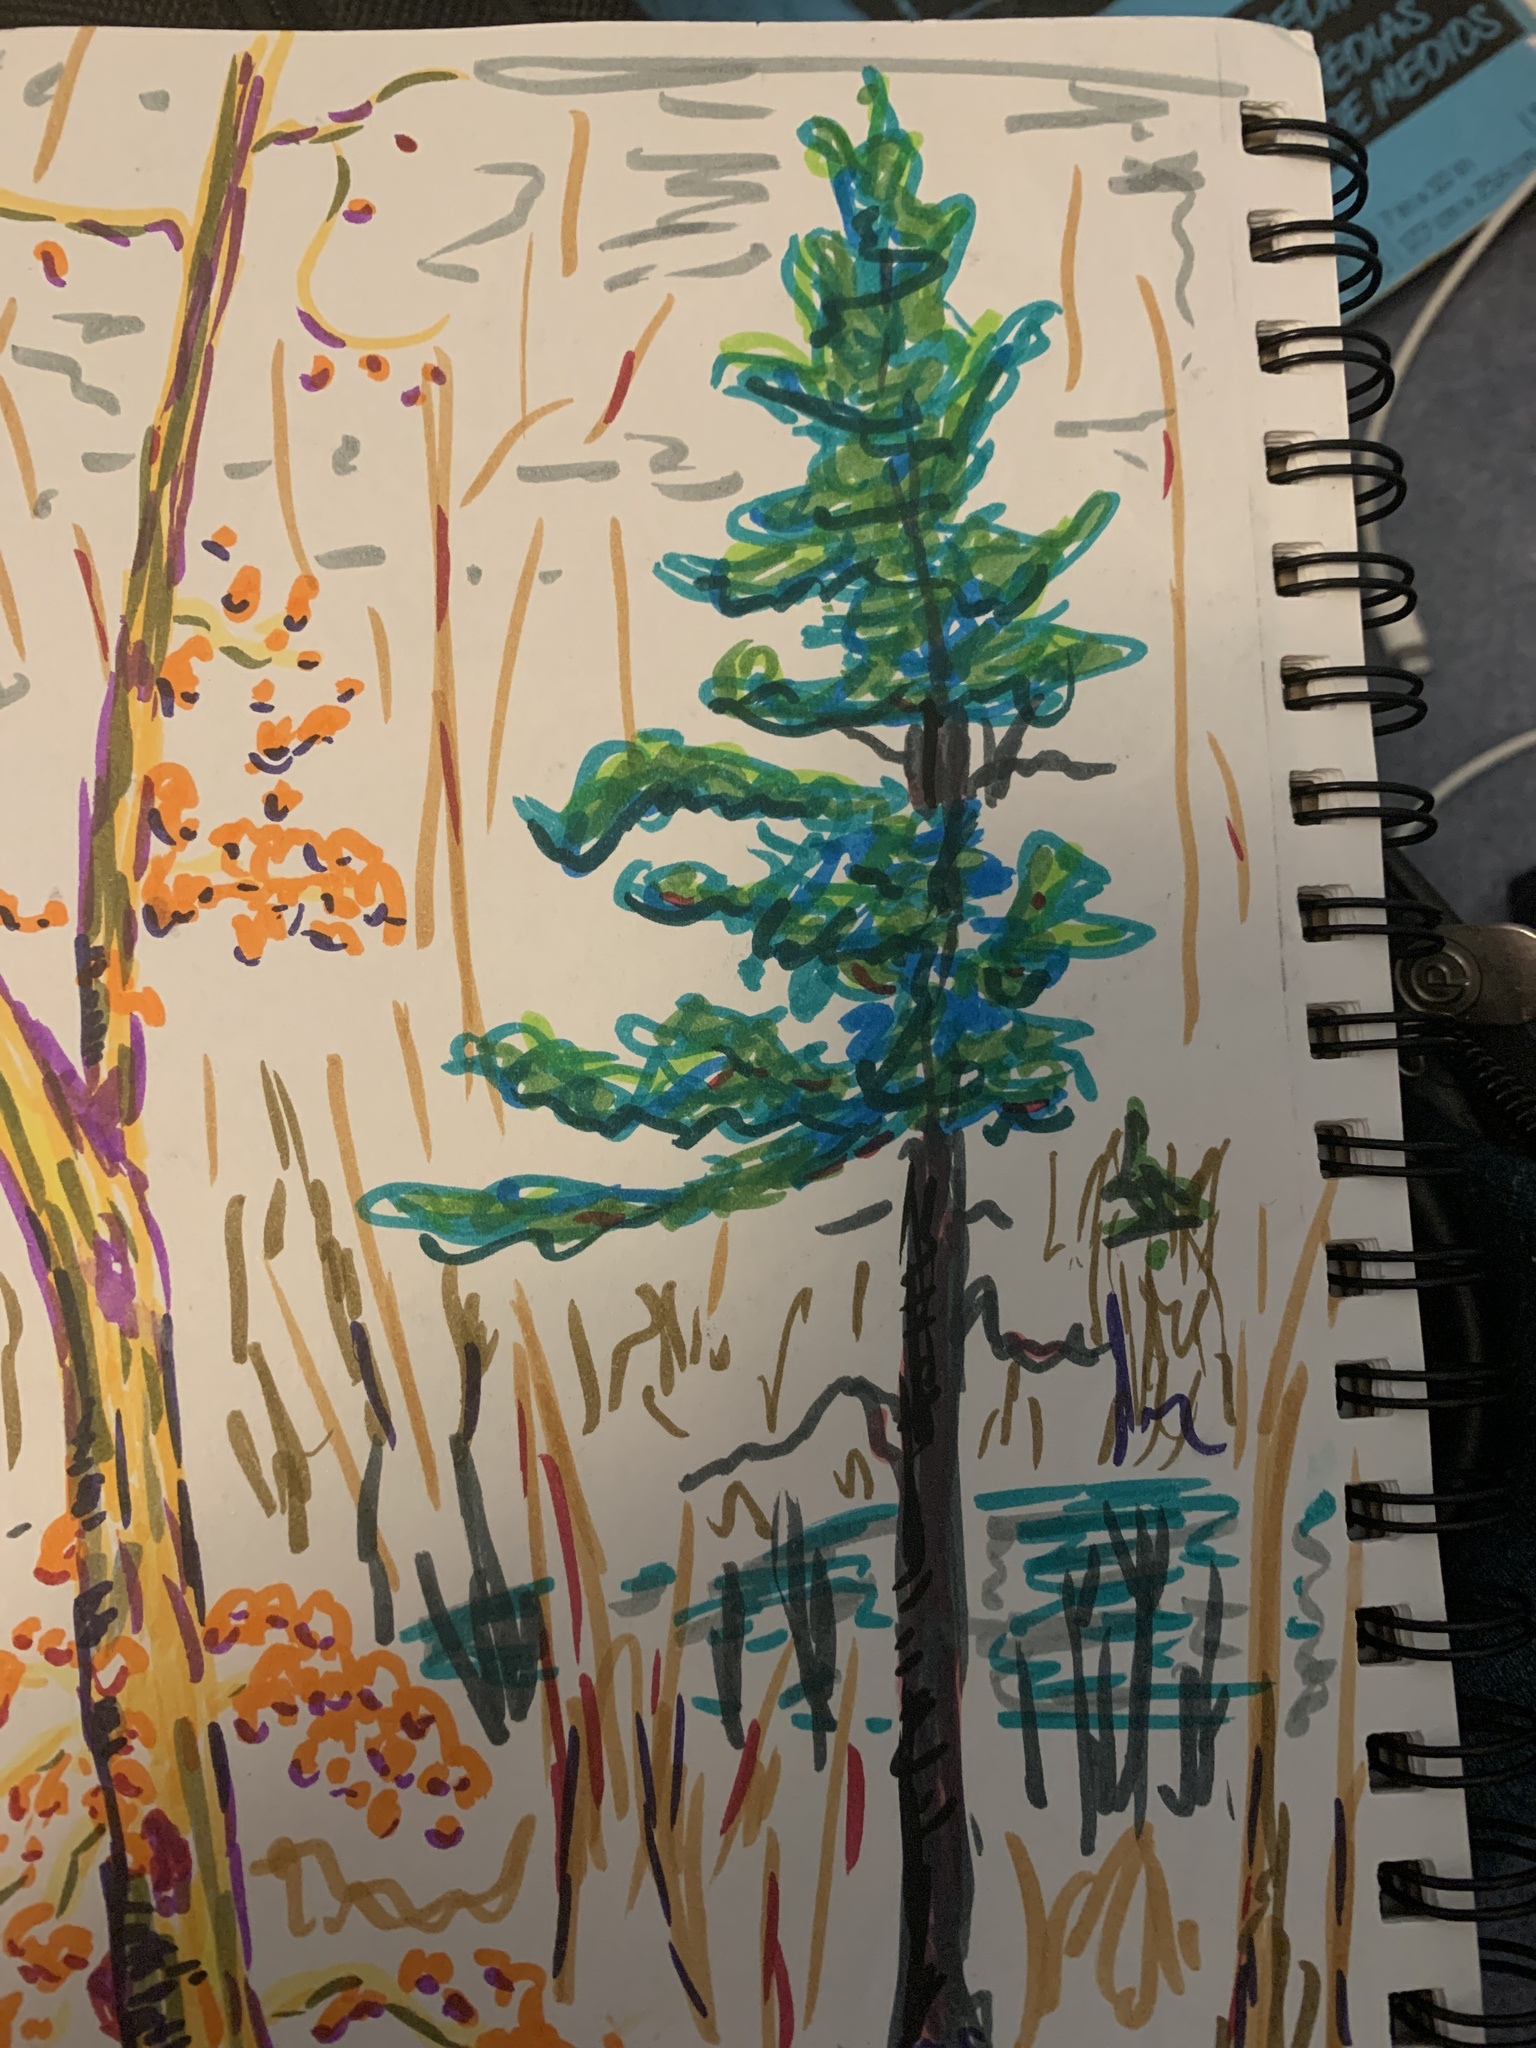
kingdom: Plantae
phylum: Tracheophyta
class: Pinopsida
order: Pinales
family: Pinaceae
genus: Pinus
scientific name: Pinus strobus
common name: Weymouth pine
